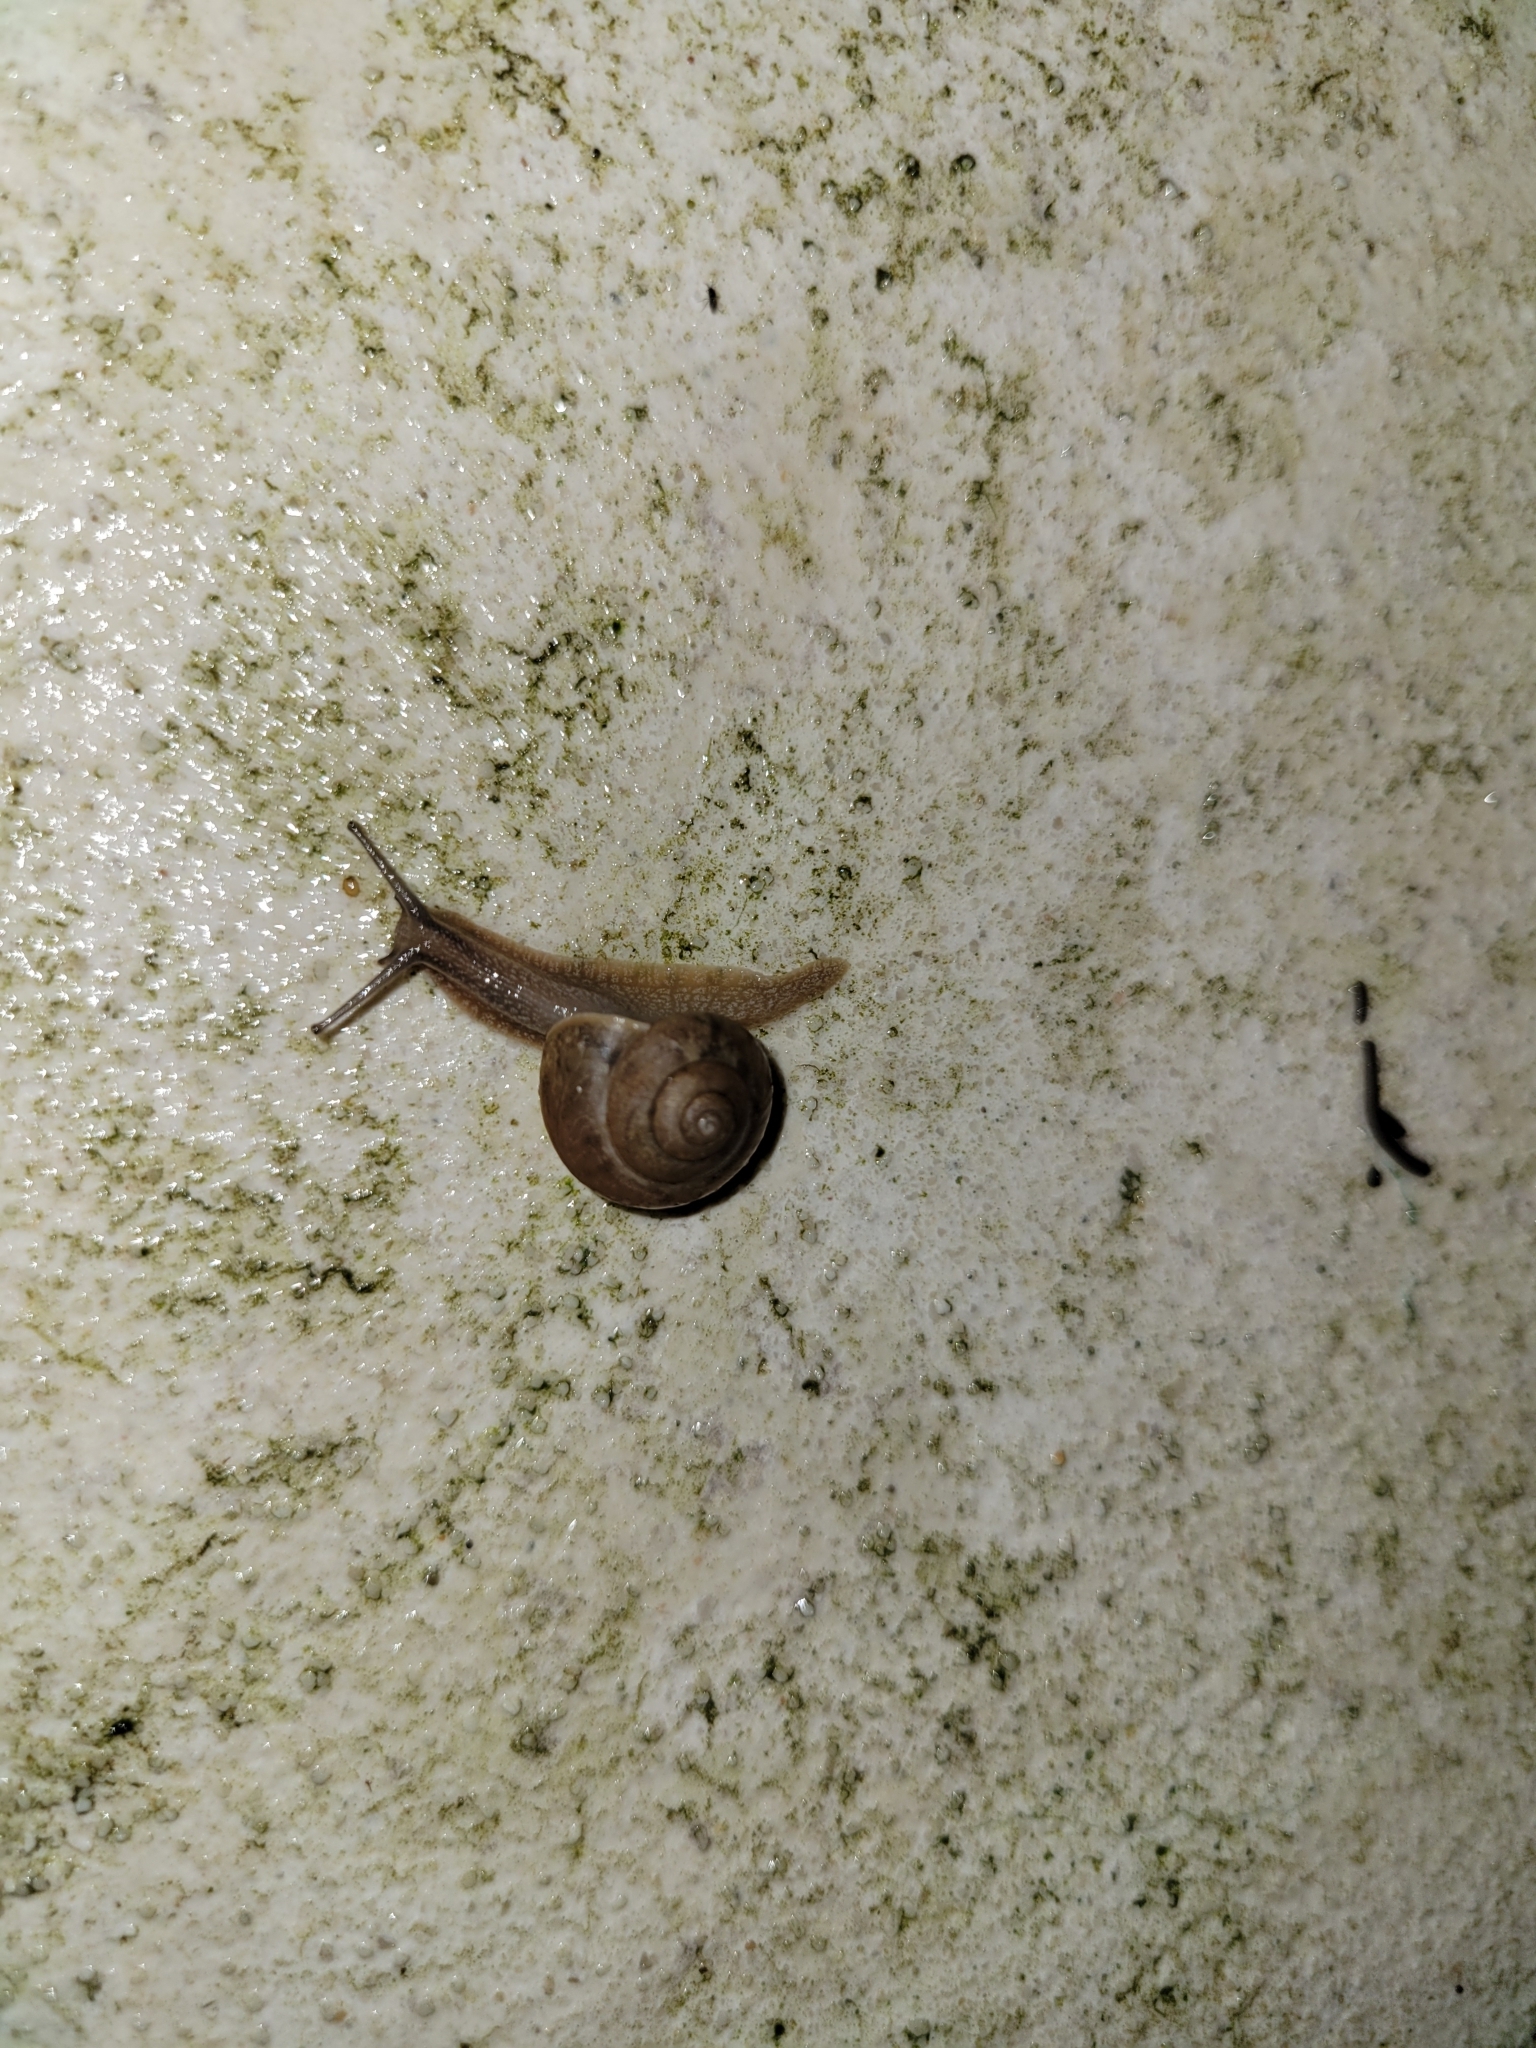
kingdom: Animalia
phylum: Mollusca
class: Gastropoda
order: Stylommatophora
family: Camaenidae
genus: Bradybaena
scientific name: Bradybaena similaris
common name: Asian trampsnail
